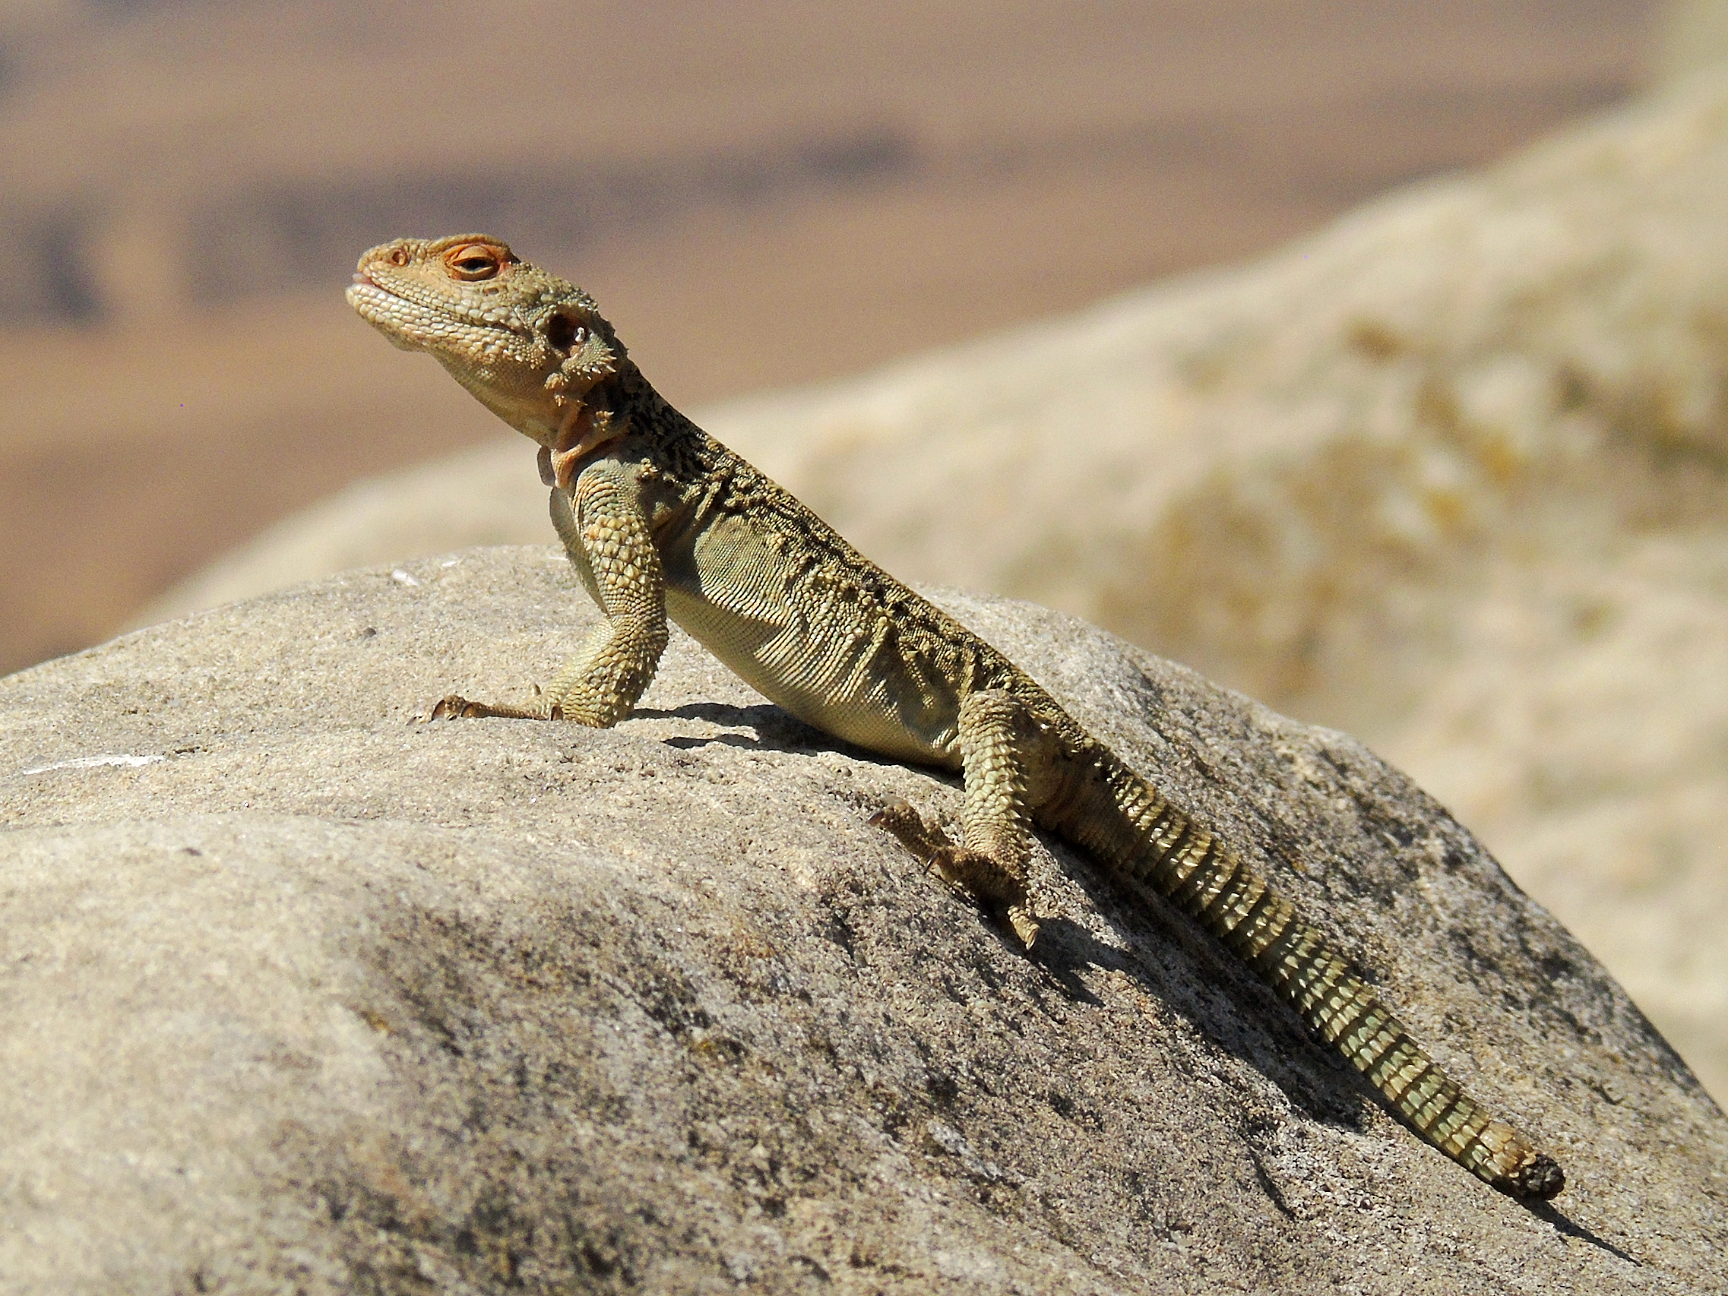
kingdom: Animalia
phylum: Chordata
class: Squamata
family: Agamidae
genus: Paralaudakia
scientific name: Paralaudakia caucasia
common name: Caucasian agama
